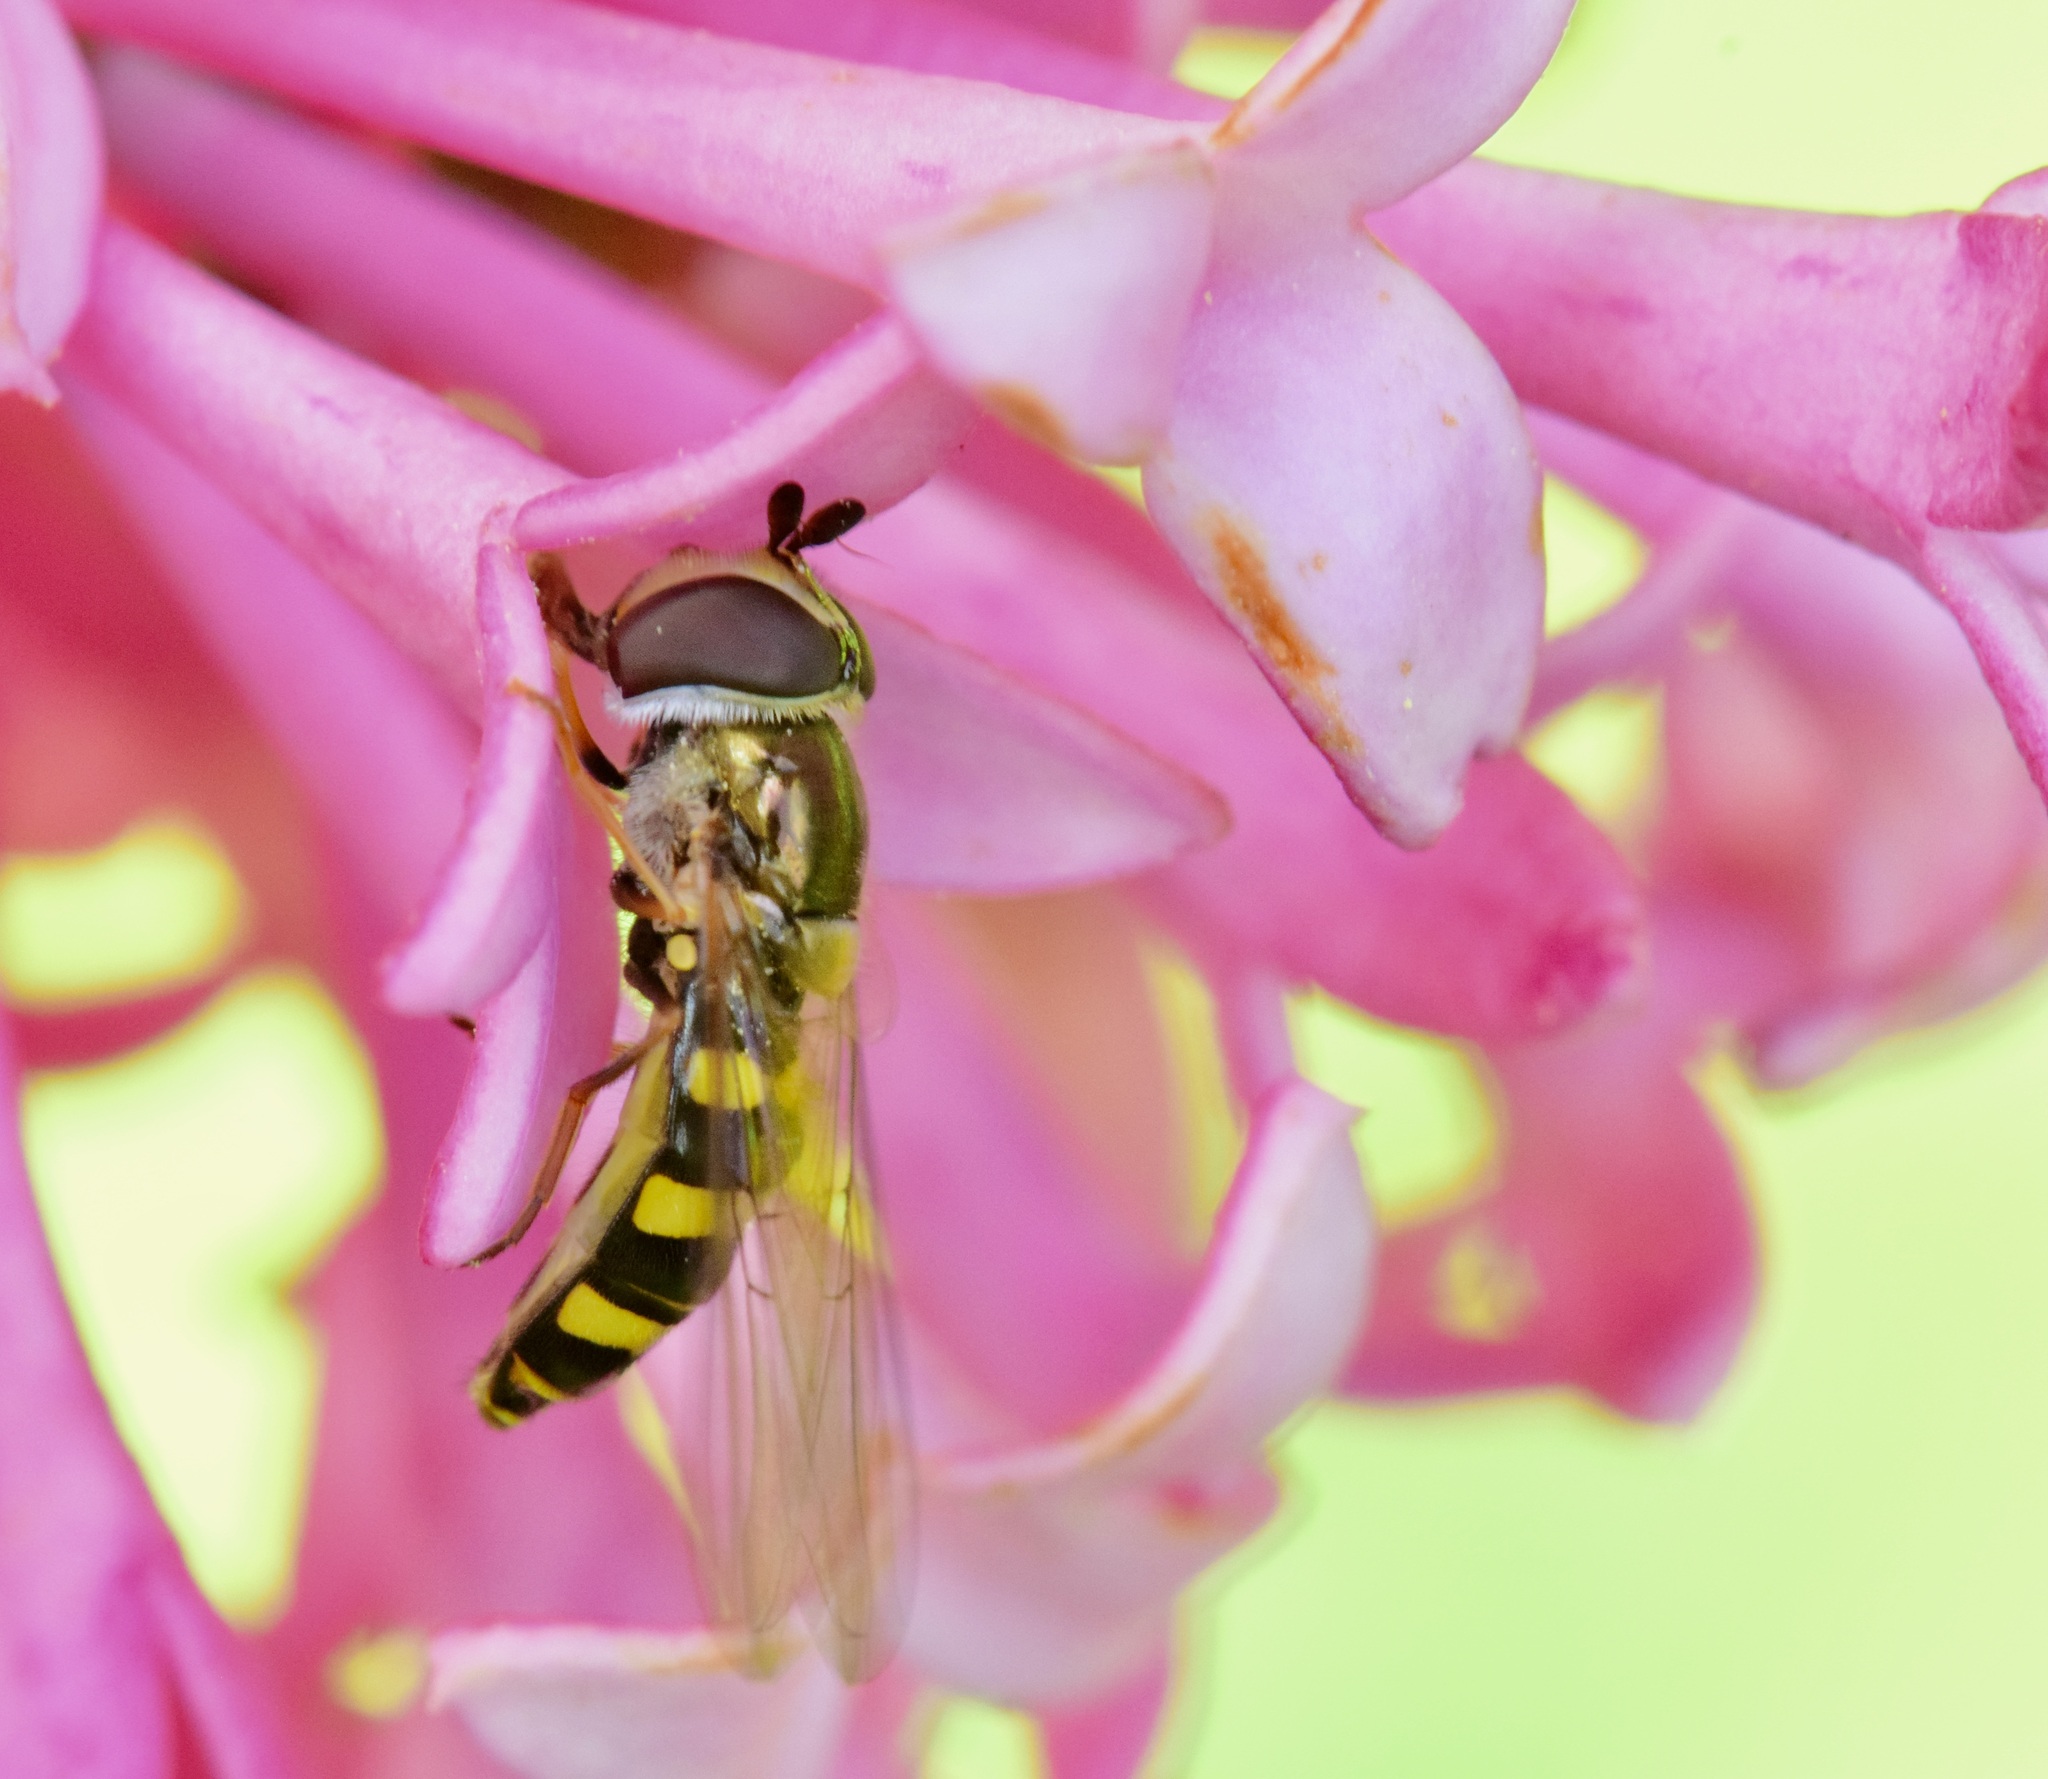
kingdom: Animalia
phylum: Arthropoda
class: Insecta
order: Diptera
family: Syrphidae
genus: Eupeodes
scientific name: Eupeodes
